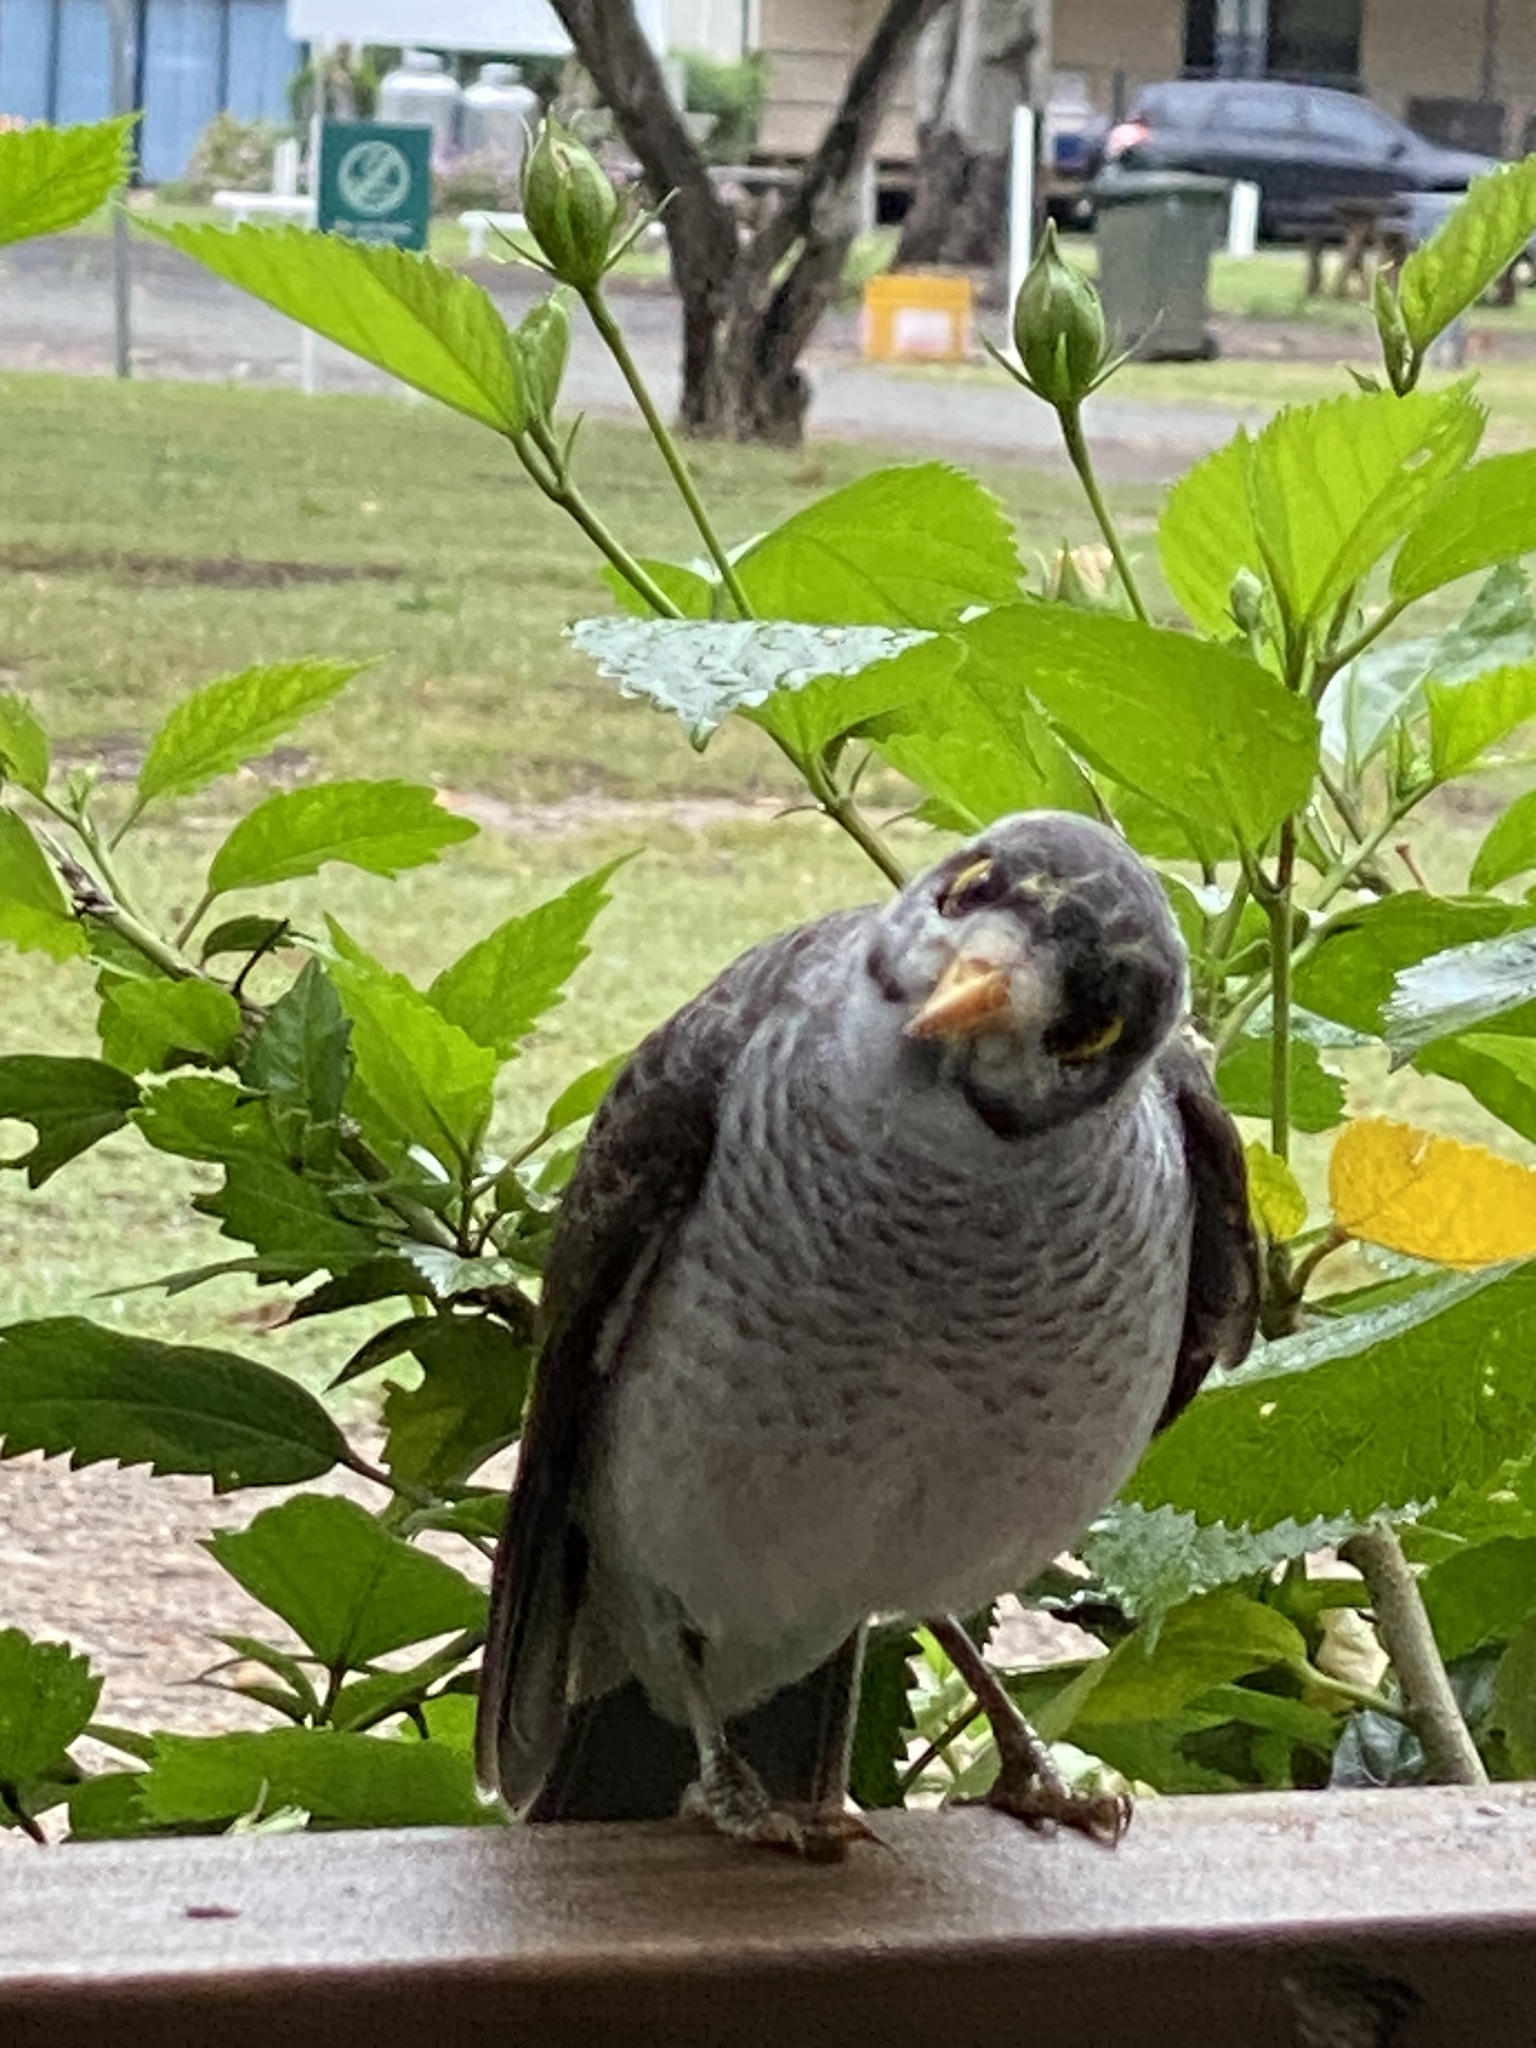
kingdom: Animalia
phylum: Chordata
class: Aves
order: Passeriformes
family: Meliphagidae
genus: Manorina
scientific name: Manorina melanocephala
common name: Noisy miner
